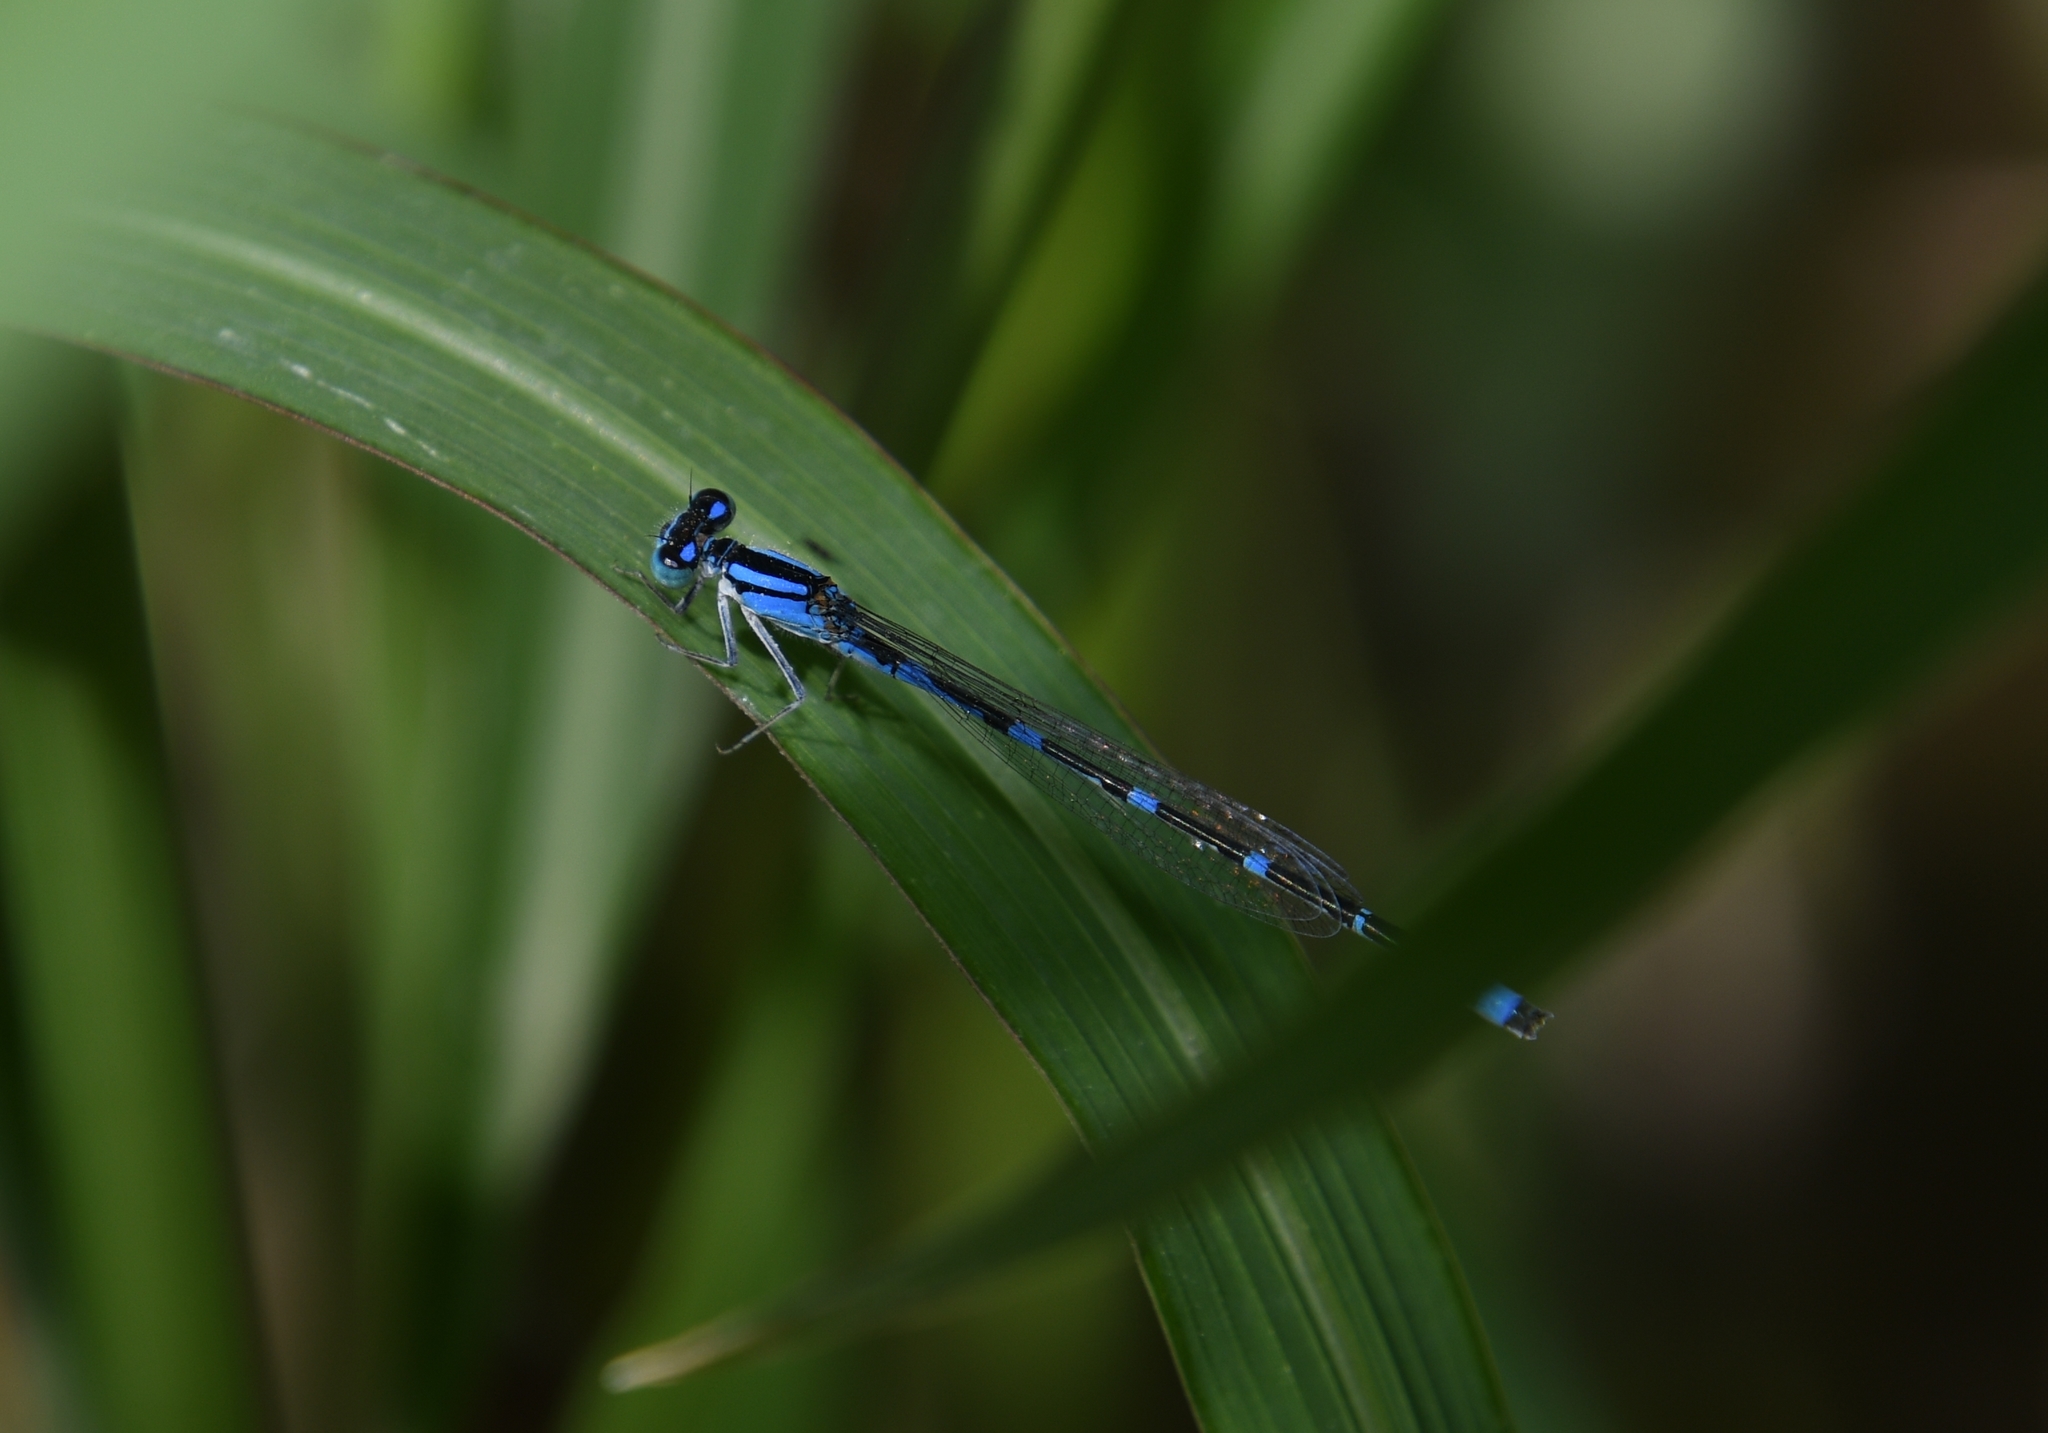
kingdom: Animalia
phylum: Arthropoda
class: Insecta
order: Odonata
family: Coenagrionidae
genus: Enallagma
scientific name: Enallagma praevarum
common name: Arroyo bluet
